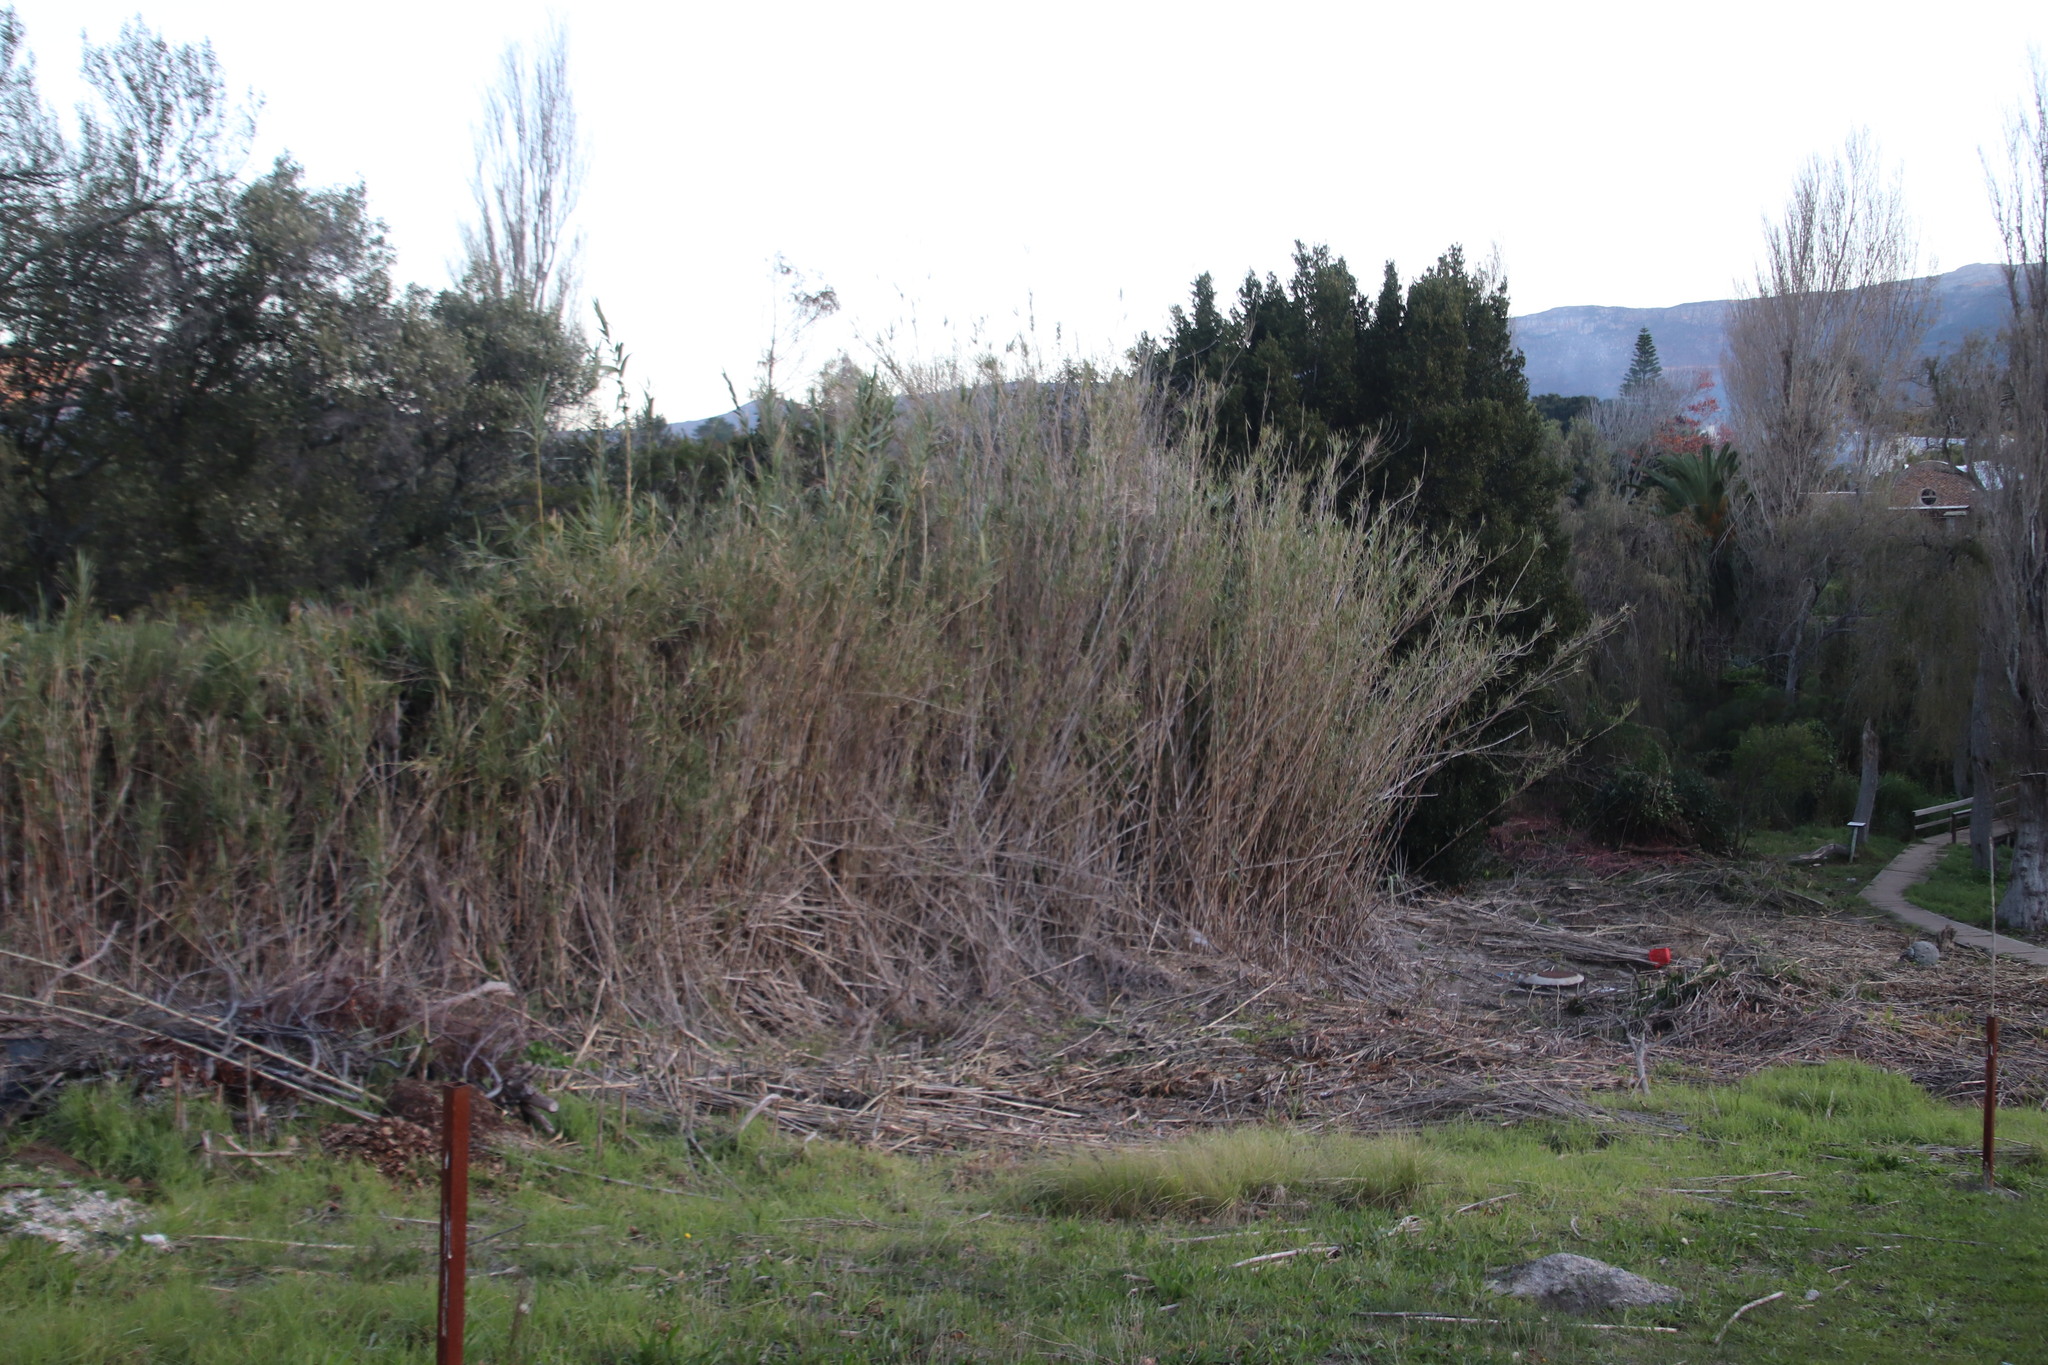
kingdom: Plantae
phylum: Tracheophyta
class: Liliopsida
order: Poales
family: Poaceae
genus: Arundo
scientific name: Arundo donax
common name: Giant reed
